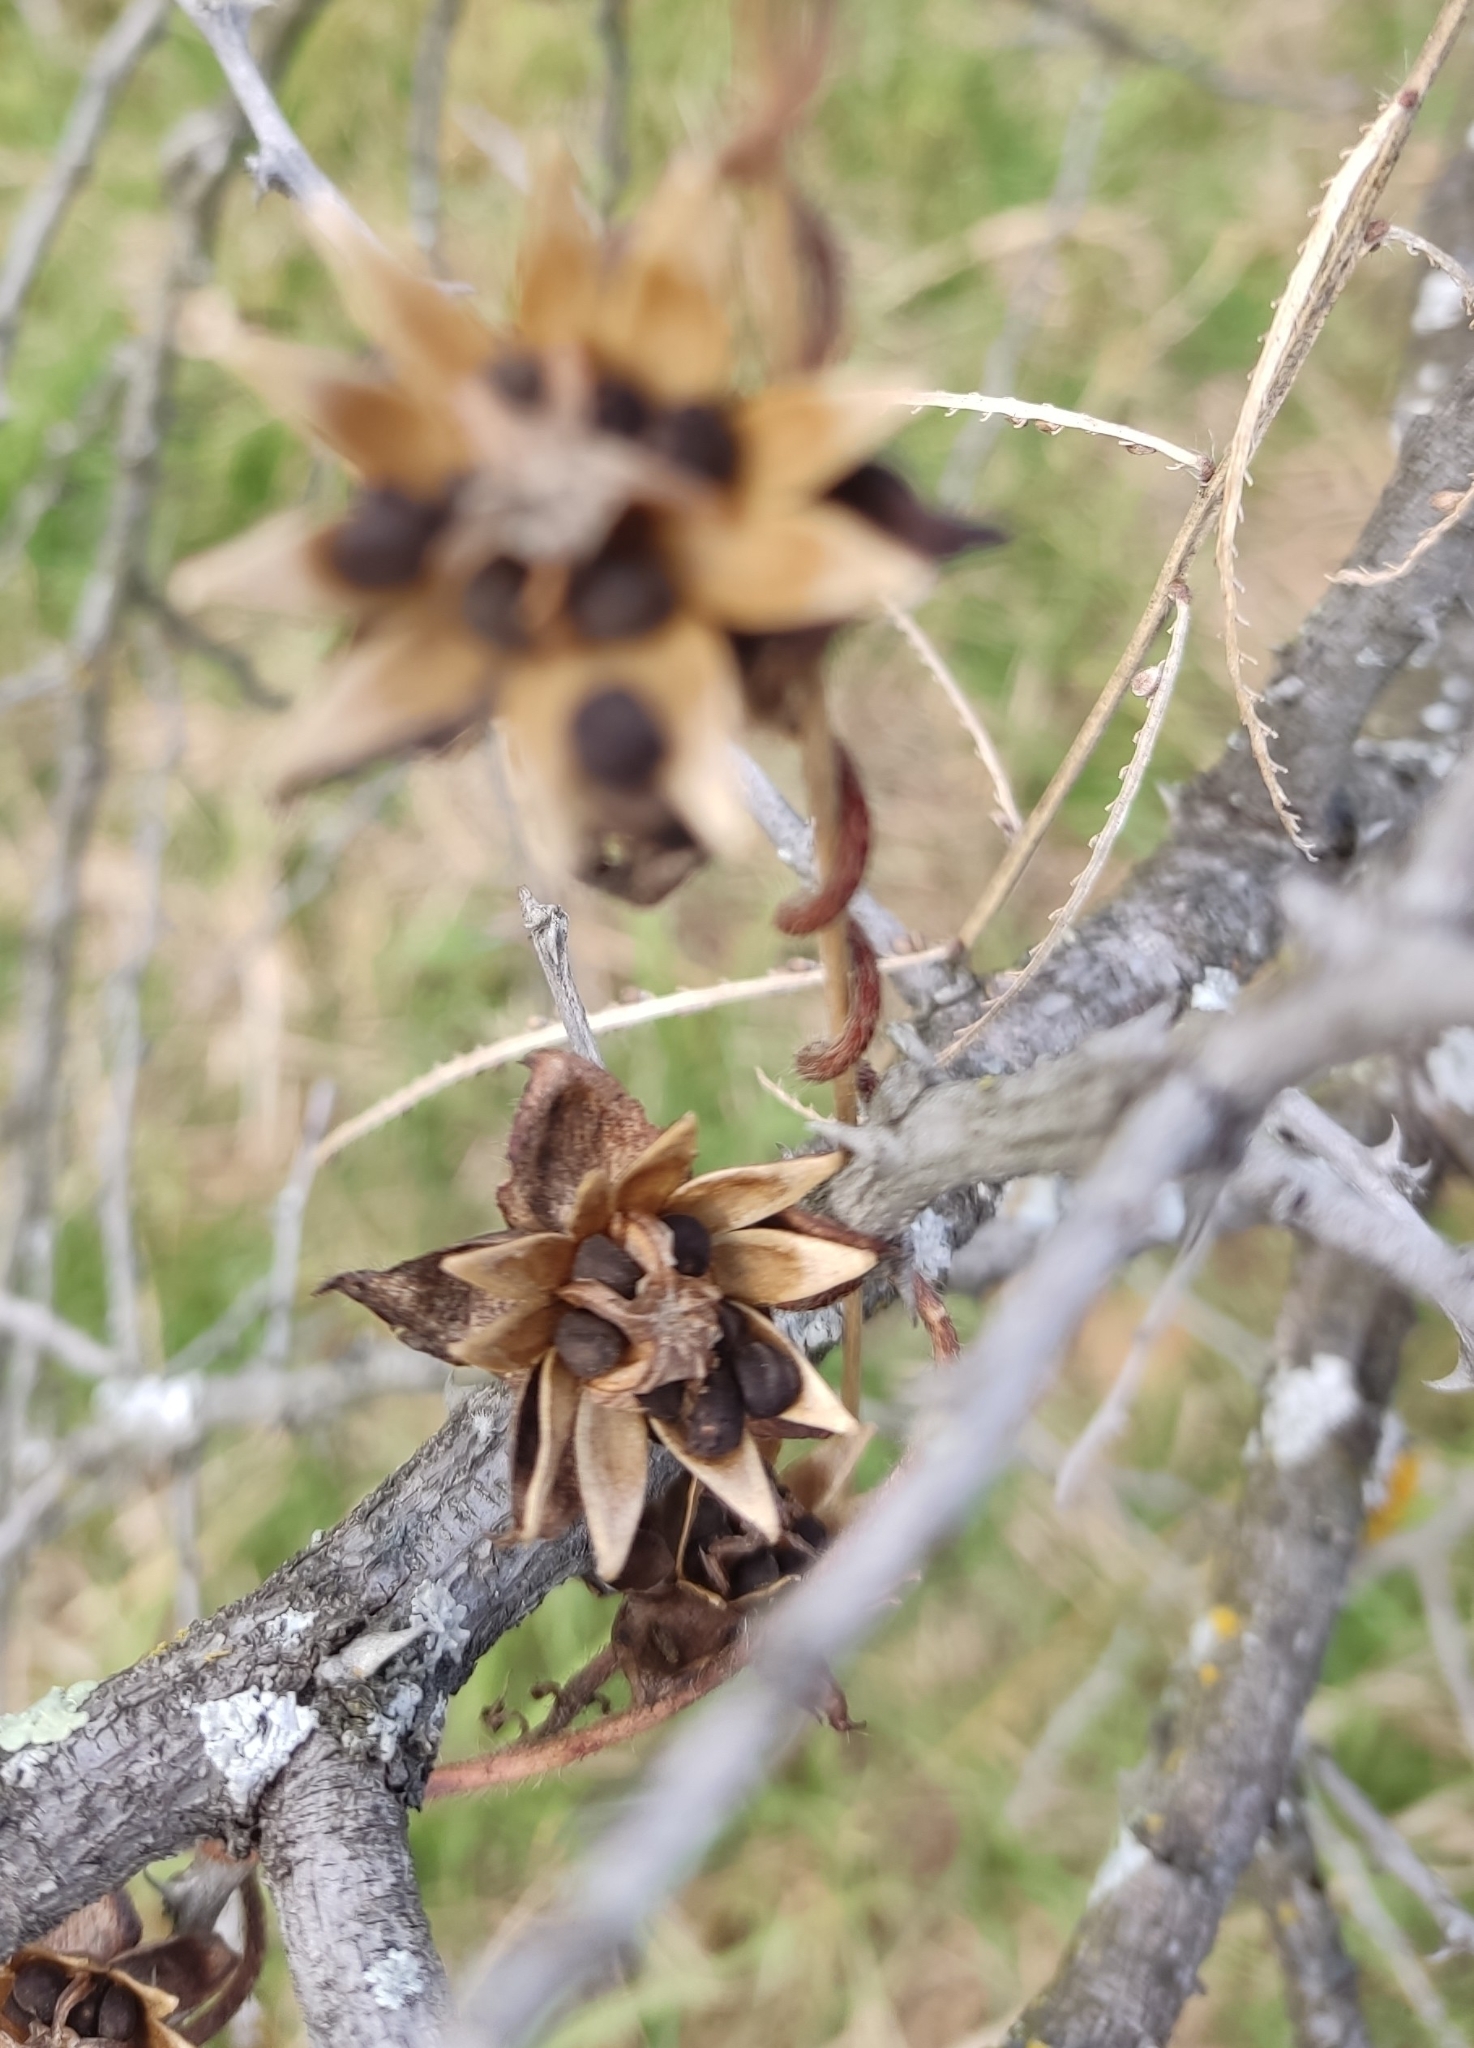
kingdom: Plantae
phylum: Tracheophyta
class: Magnoliopsida
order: Solanales
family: Convolvulaceae
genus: Ipomoea
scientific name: Ipomoea decasperma
